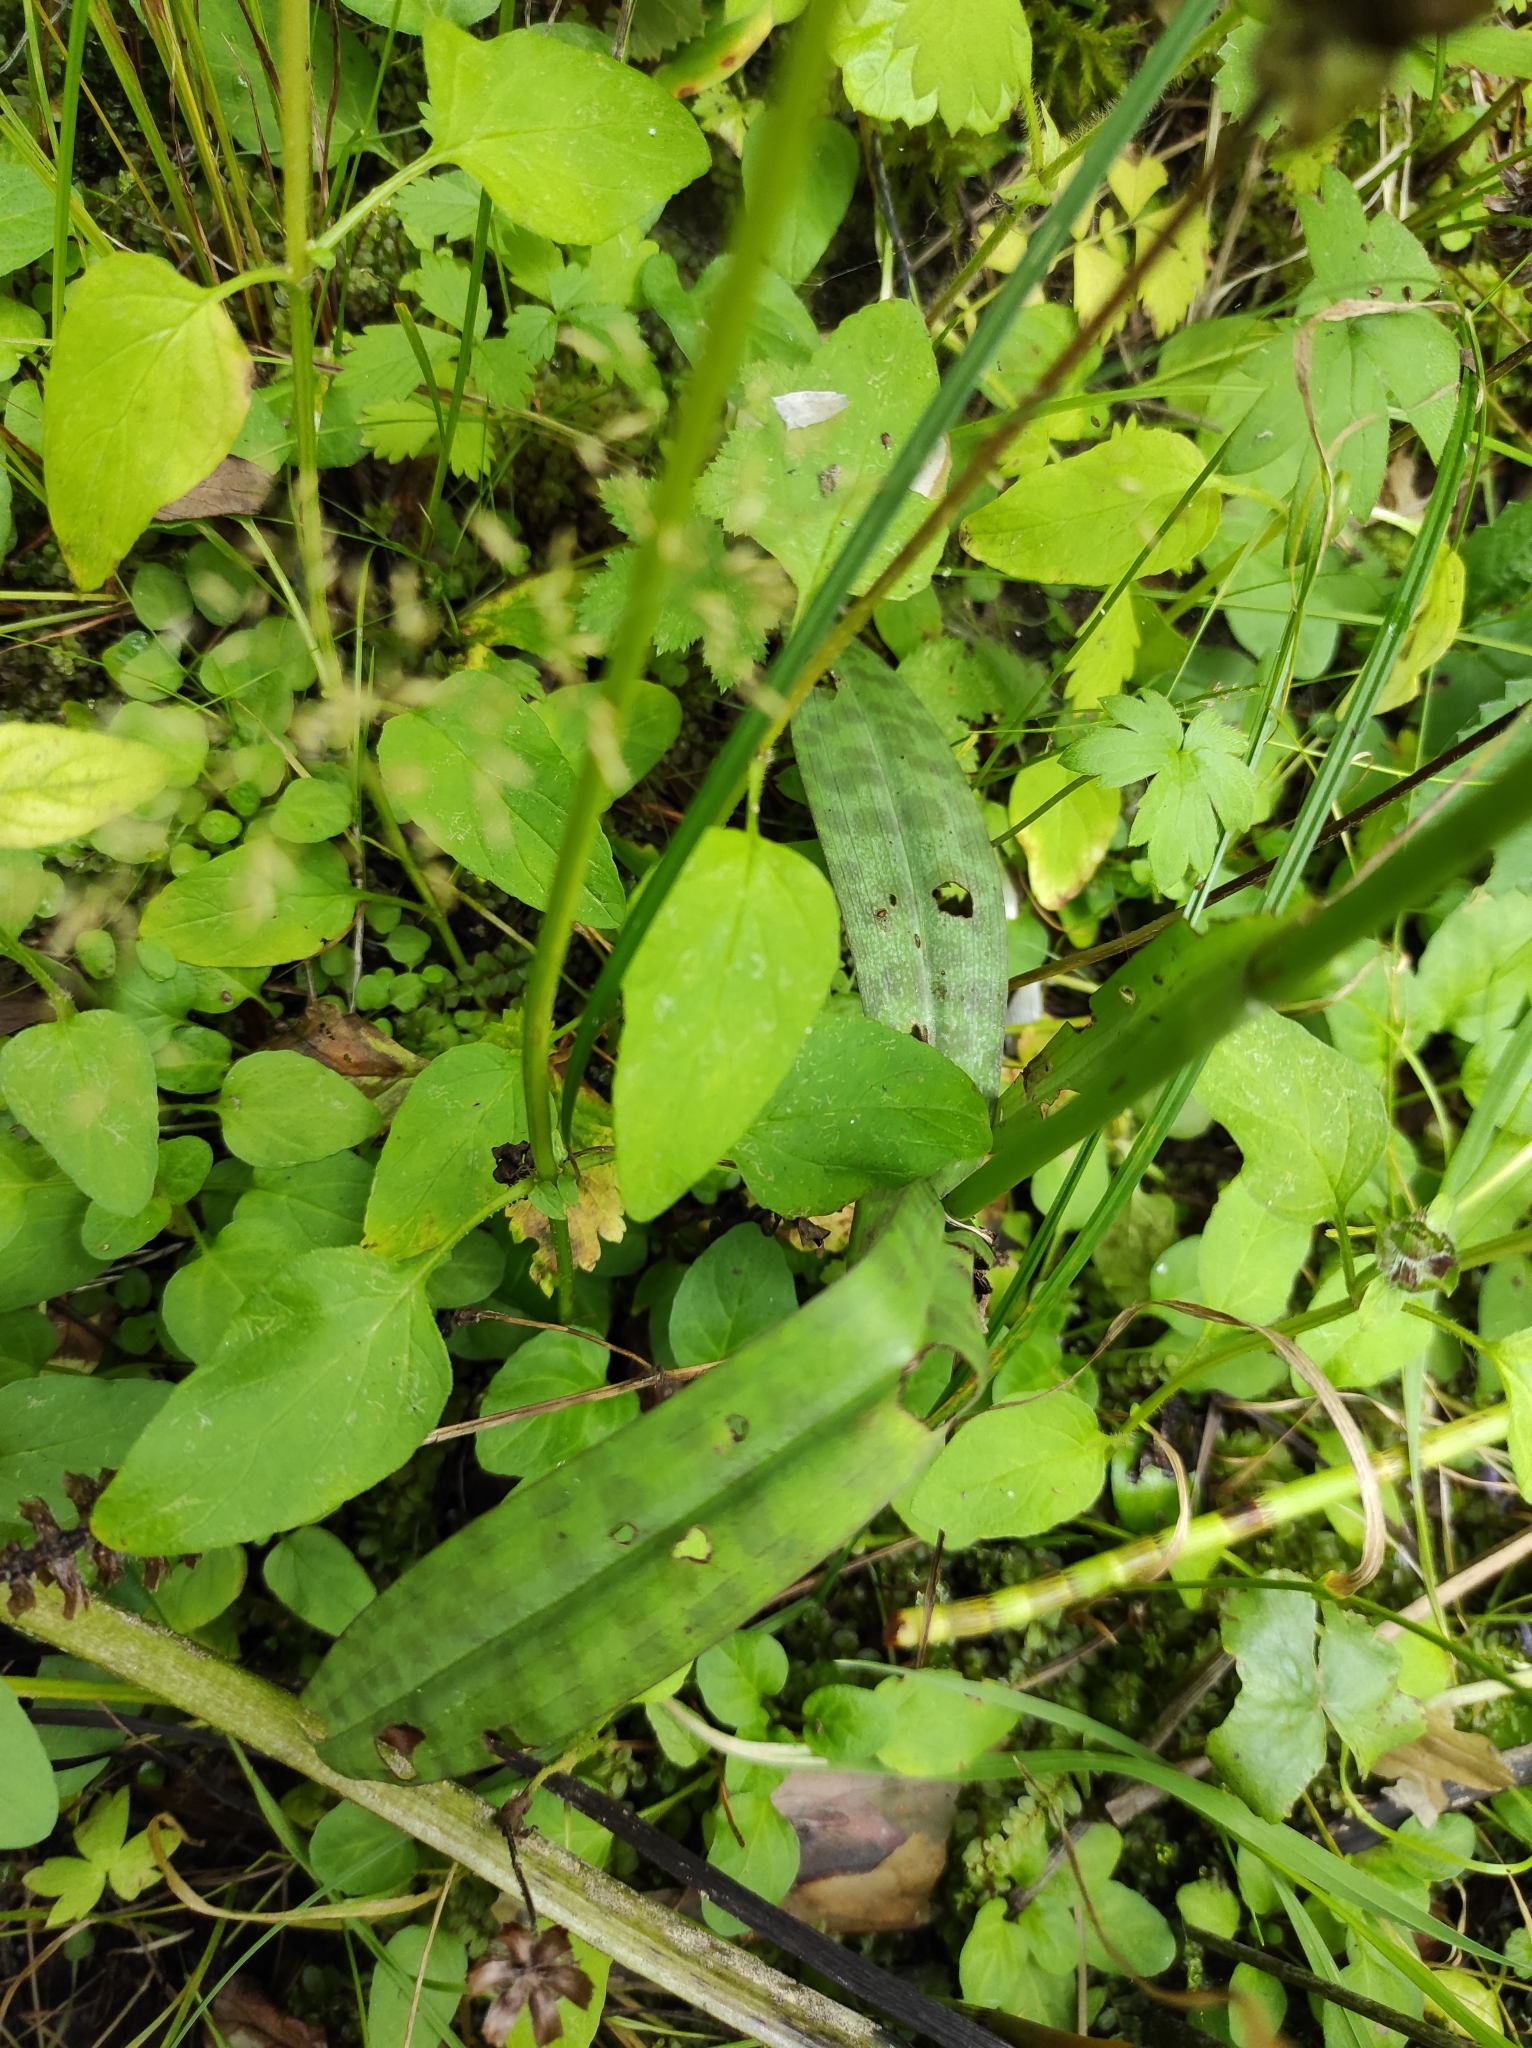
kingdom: Plantae
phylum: Tracheophyta
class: Liliopsida
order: Asparagales
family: Orchidaceae
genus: Dactylorhiza
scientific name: Dactylorhiza maculata
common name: Heath spotted-orchid
